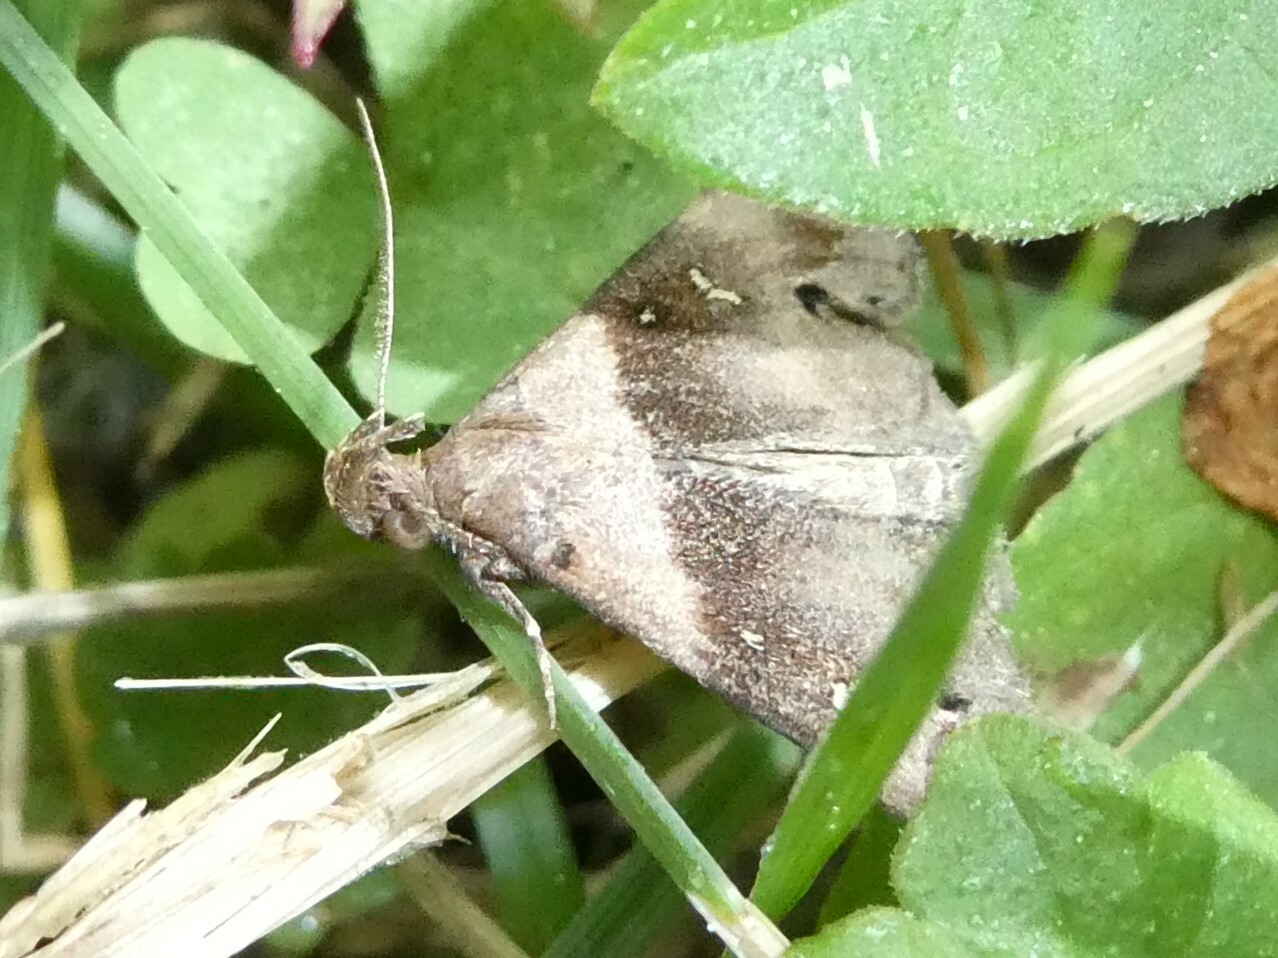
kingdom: Animalia
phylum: Arthropoda
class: Insecta
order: Lepidoptera
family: Erebidae
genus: Lascoria
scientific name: Lascoria ambigualis
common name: Ambiguous moth
